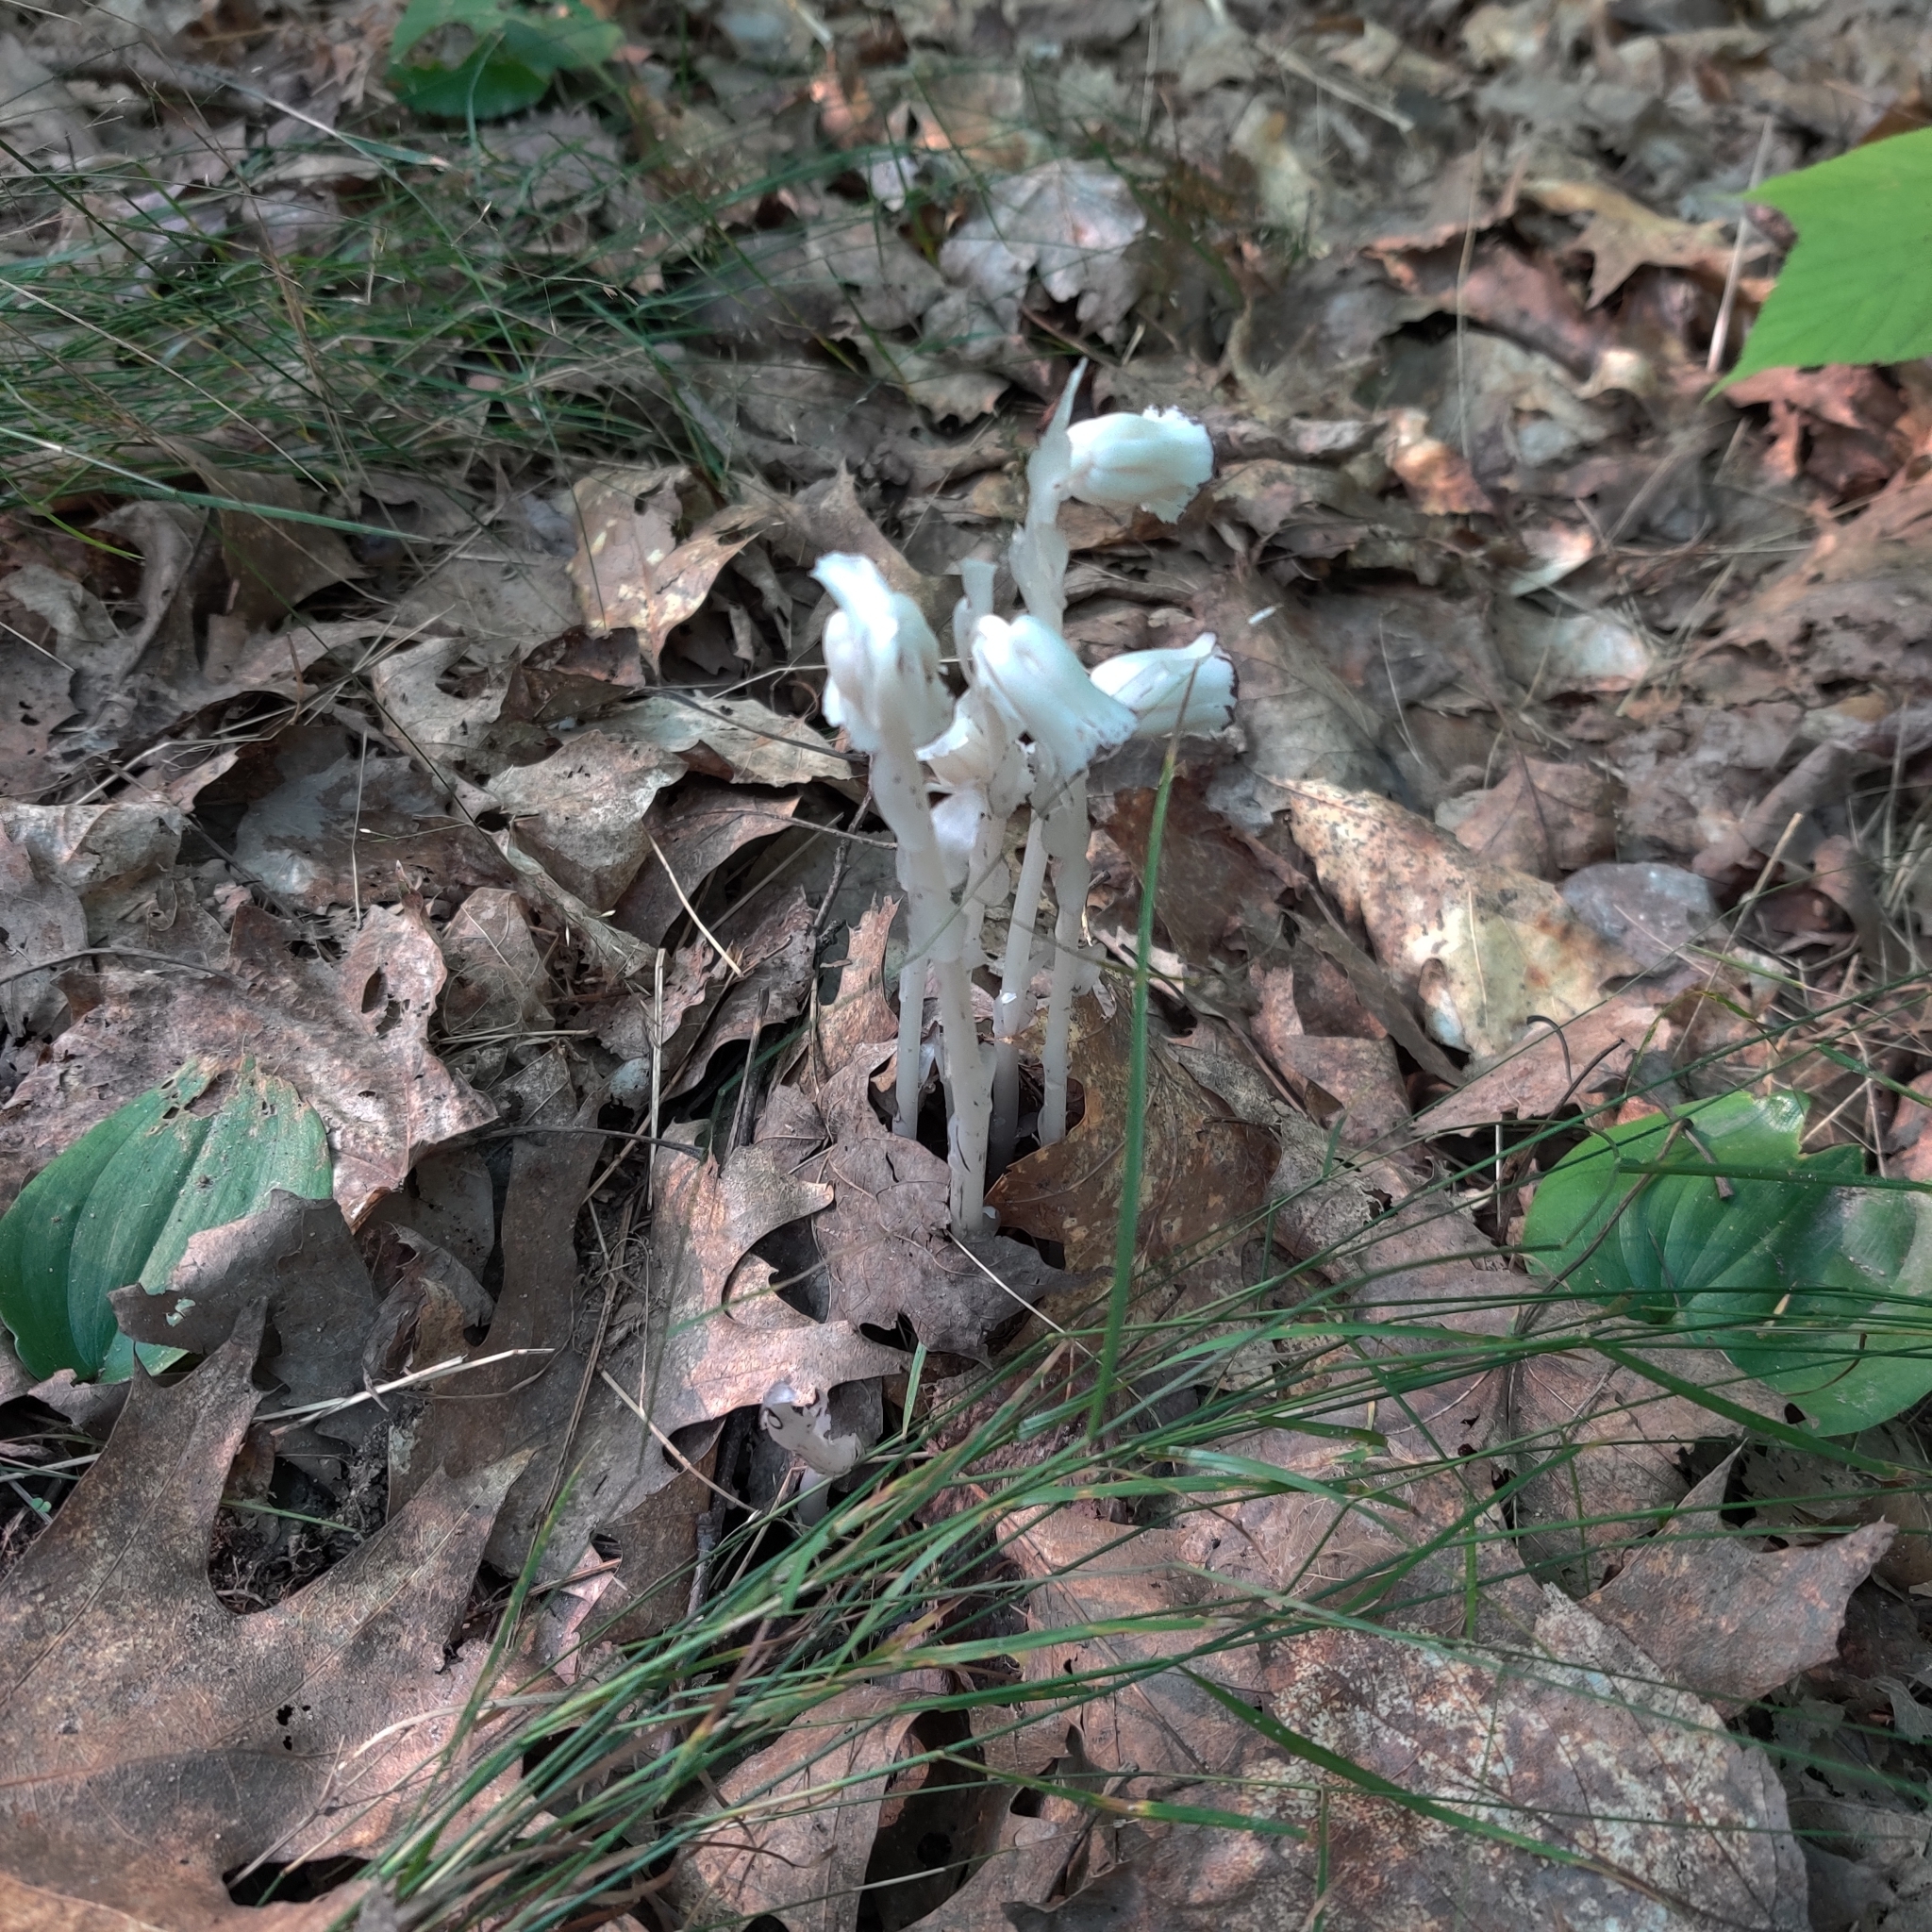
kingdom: Plantae
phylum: Tracheophyta
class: Magnoliopsida
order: Ericales
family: Ericaceae
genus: Monotropa
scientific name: Monotropa uniflora
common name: Convulsion root
